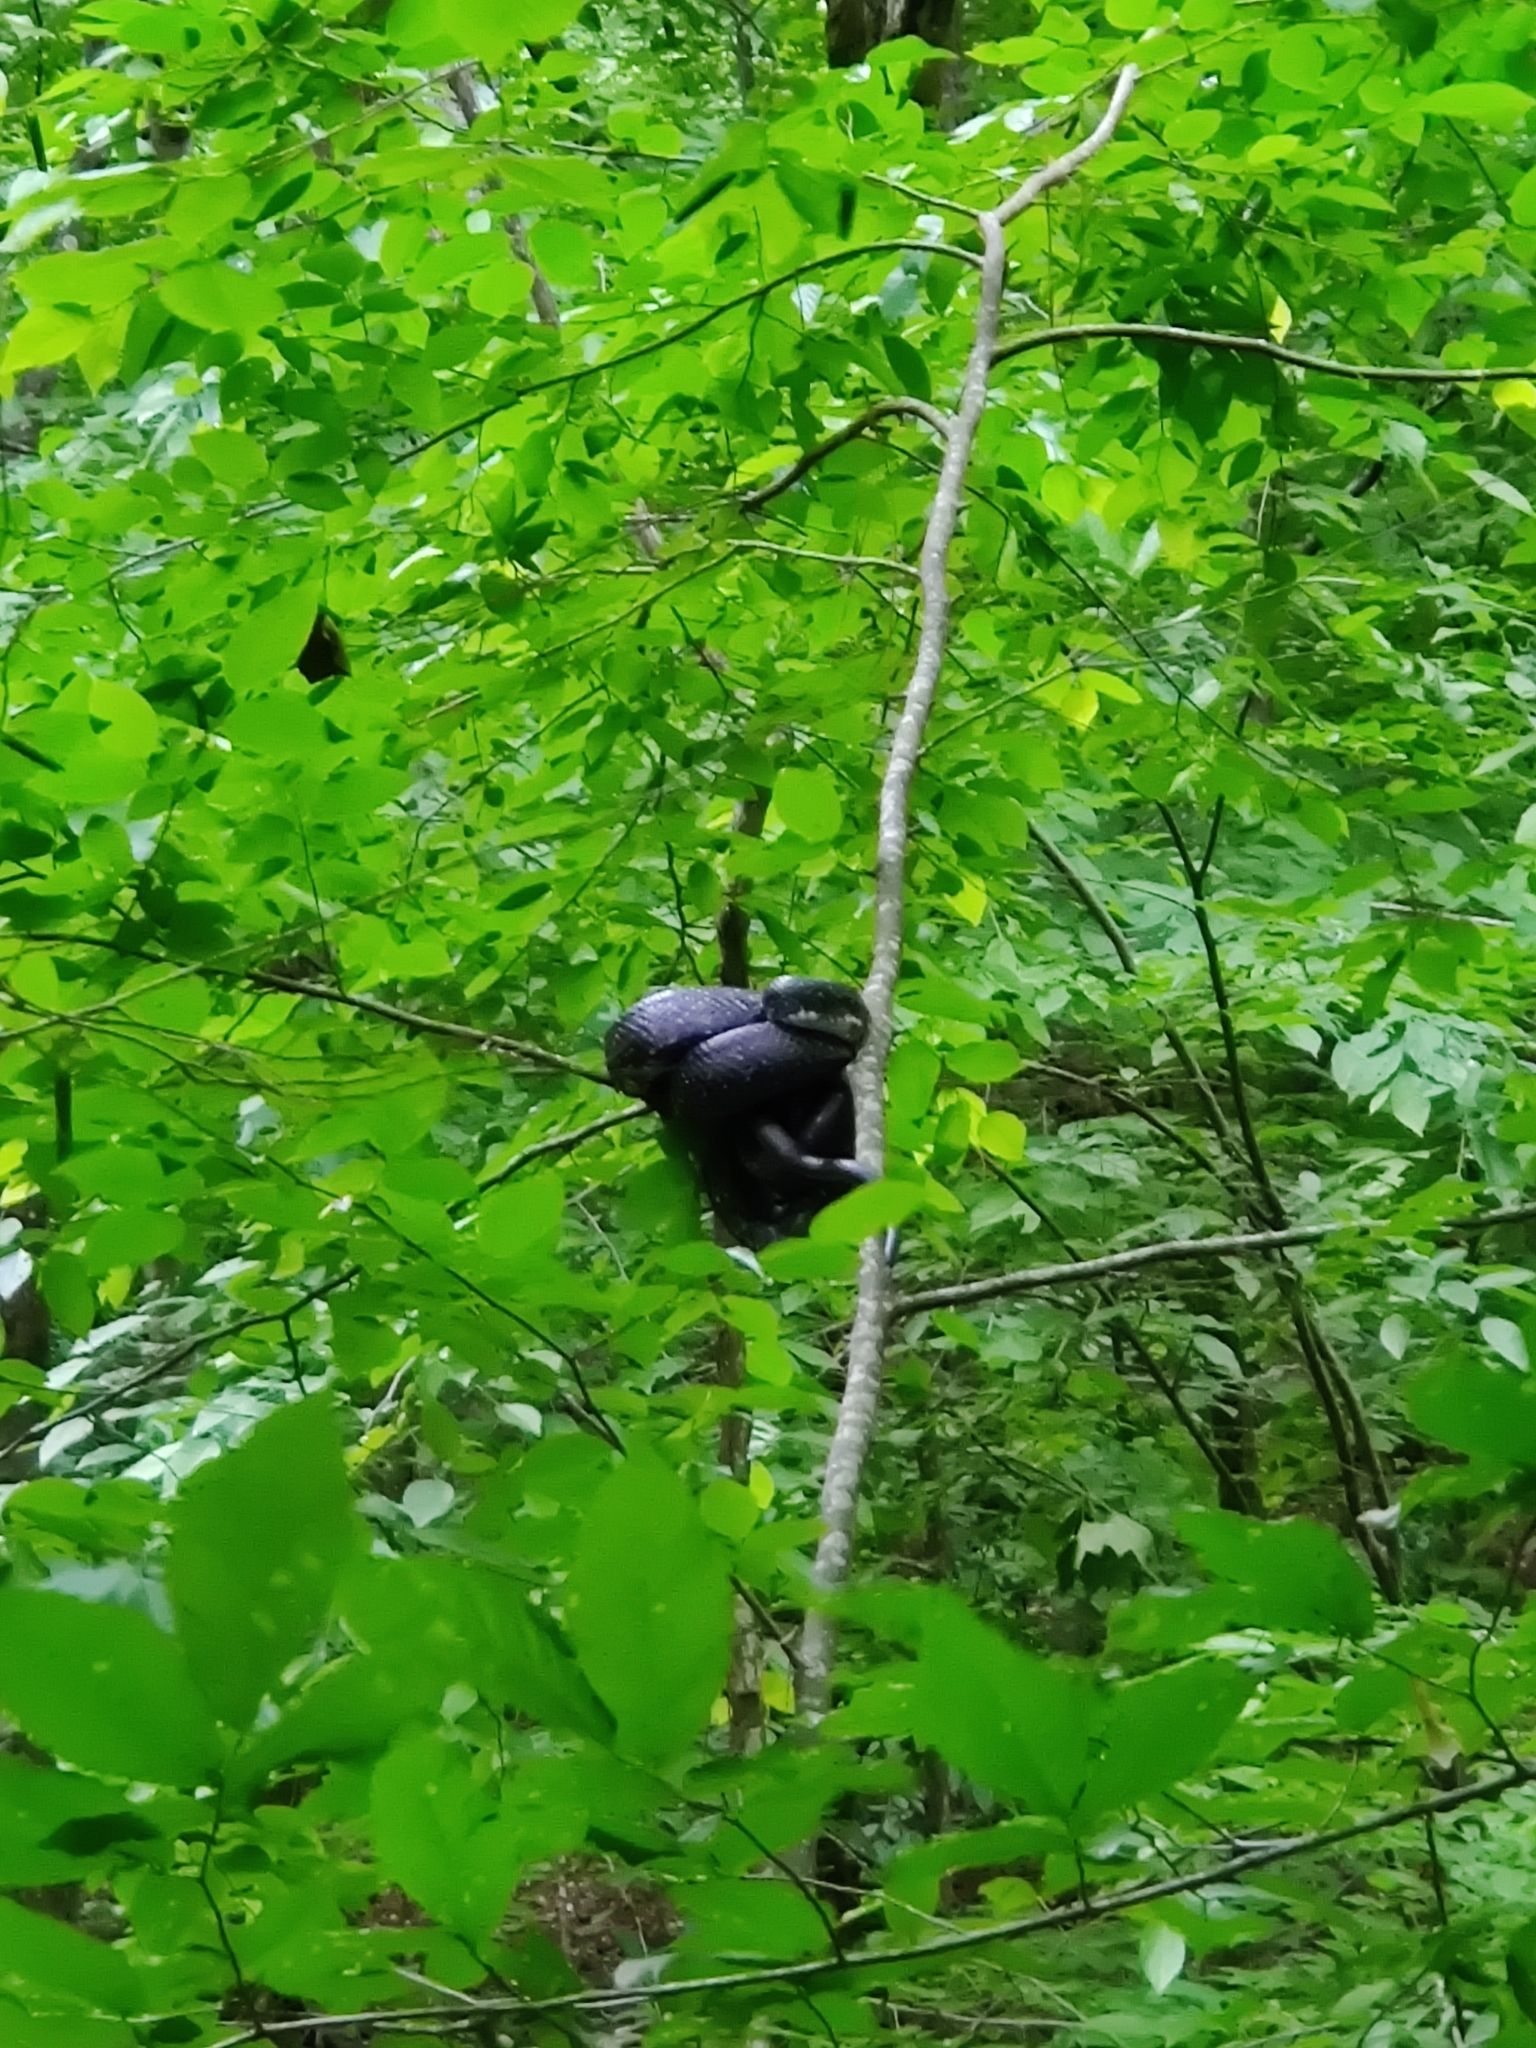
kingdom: Animalia
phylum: Chordata
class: Squamata
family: Colubridae
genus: Pantherophis
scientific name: Pantherophis alleghaniensis
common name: Eastern rat snake
